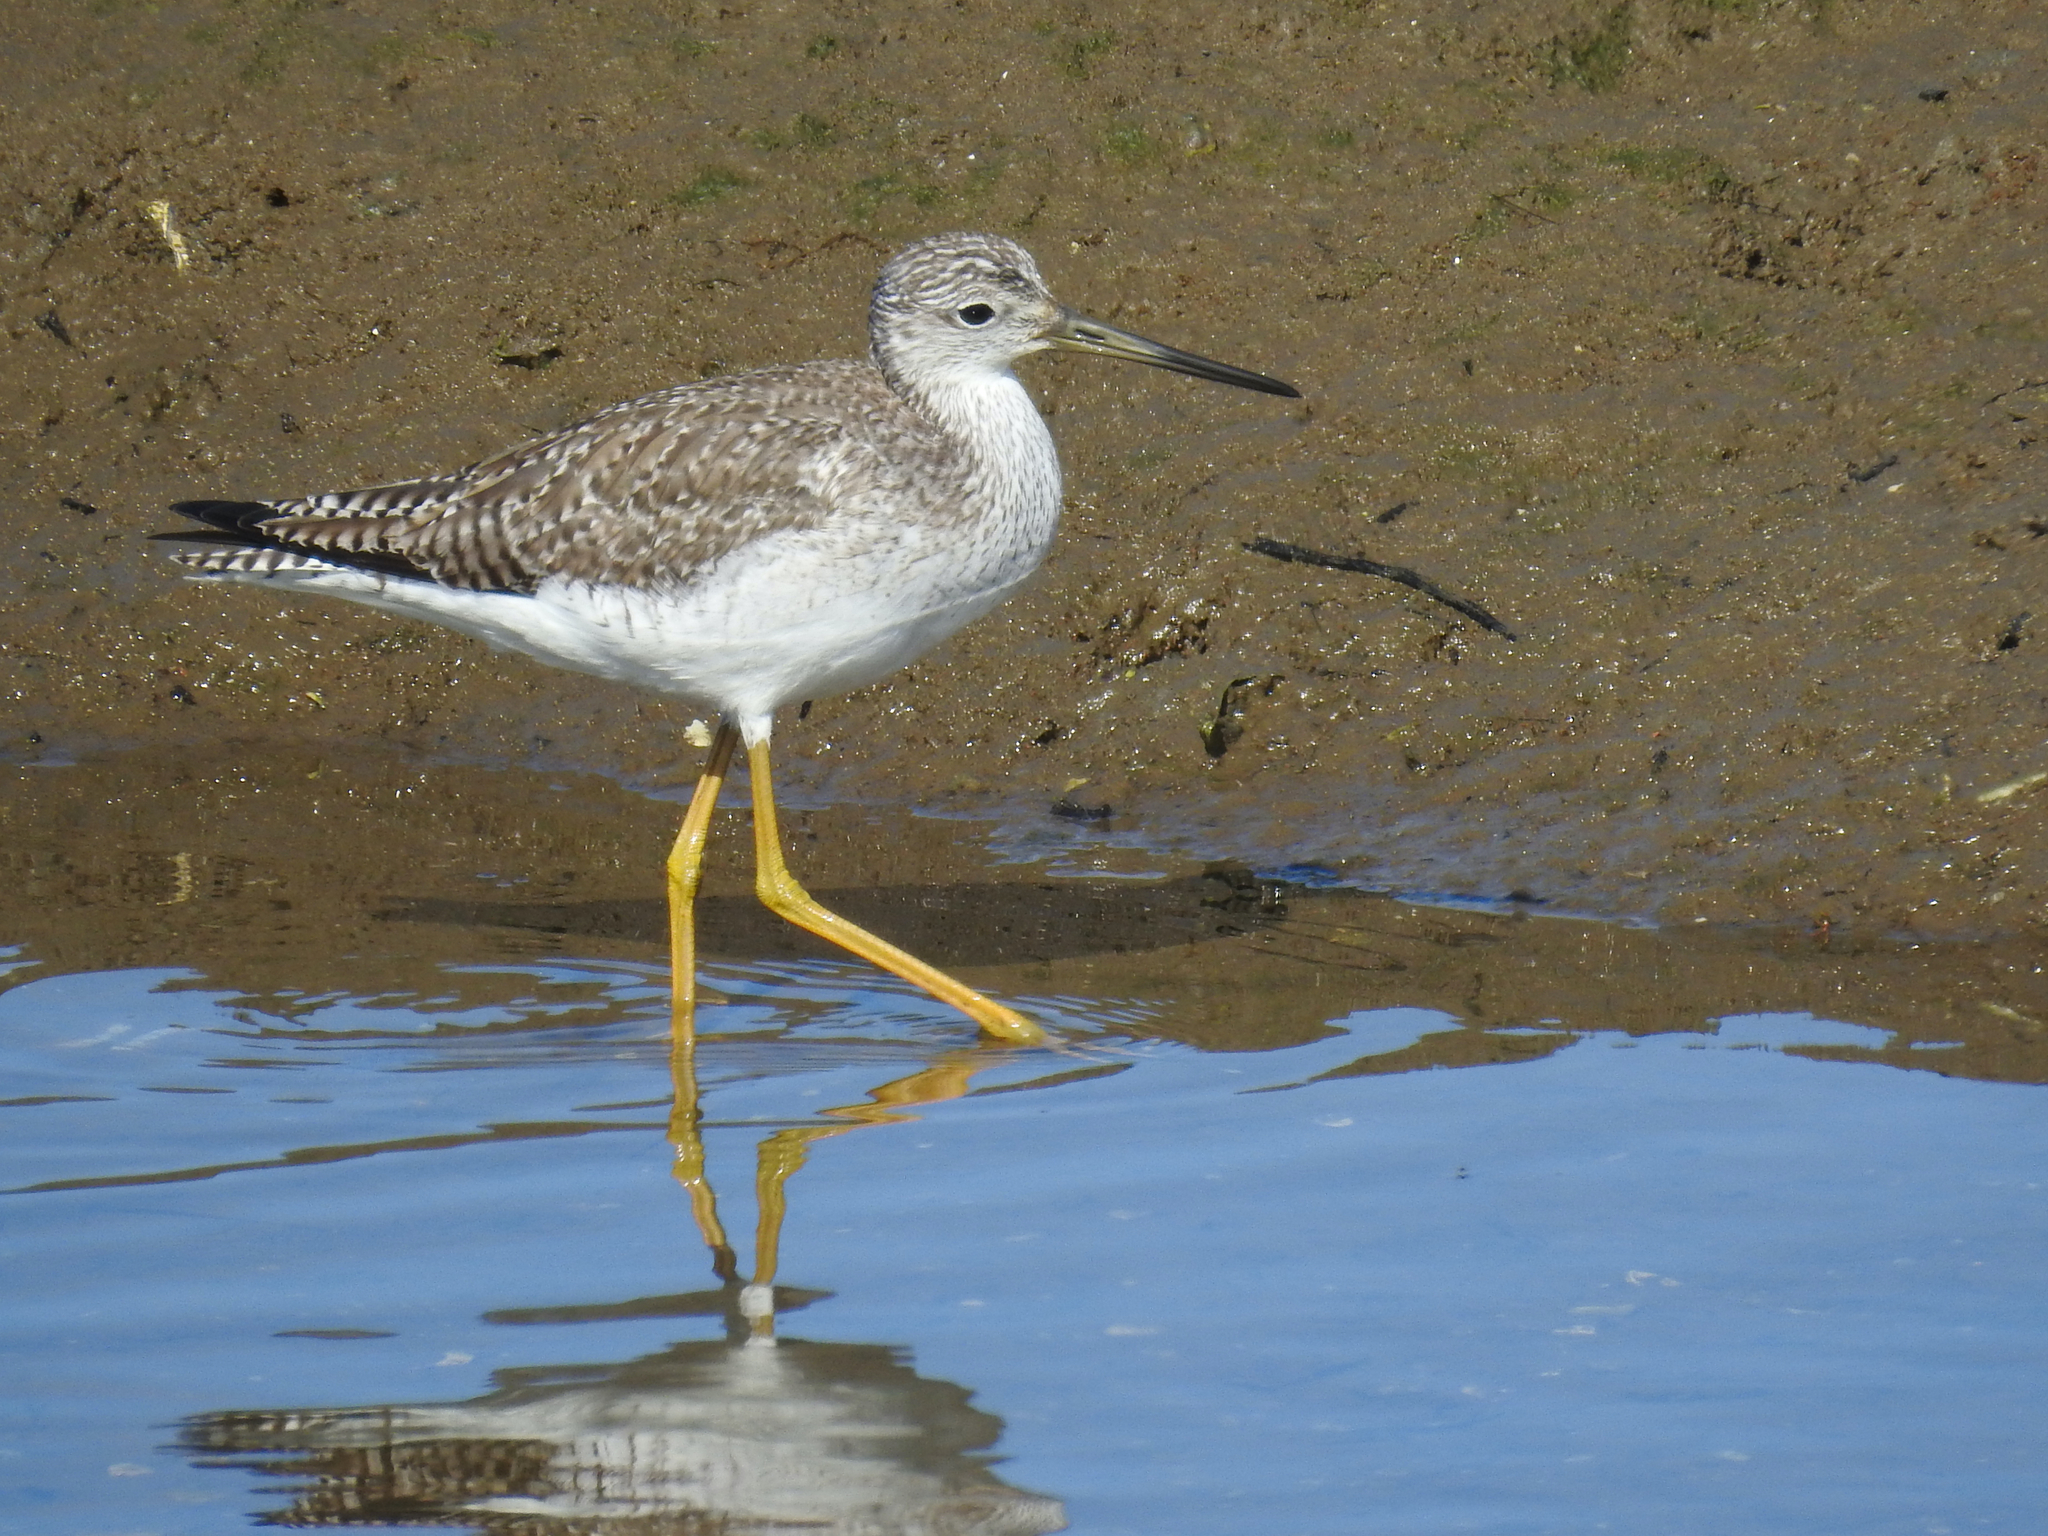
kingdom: Animalia
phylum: Chordata
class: Aves
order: Charadriiformes
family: Scolopacidae
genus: Tringa
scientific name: Tringa melanoleuca
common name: Greater yellowlegs
